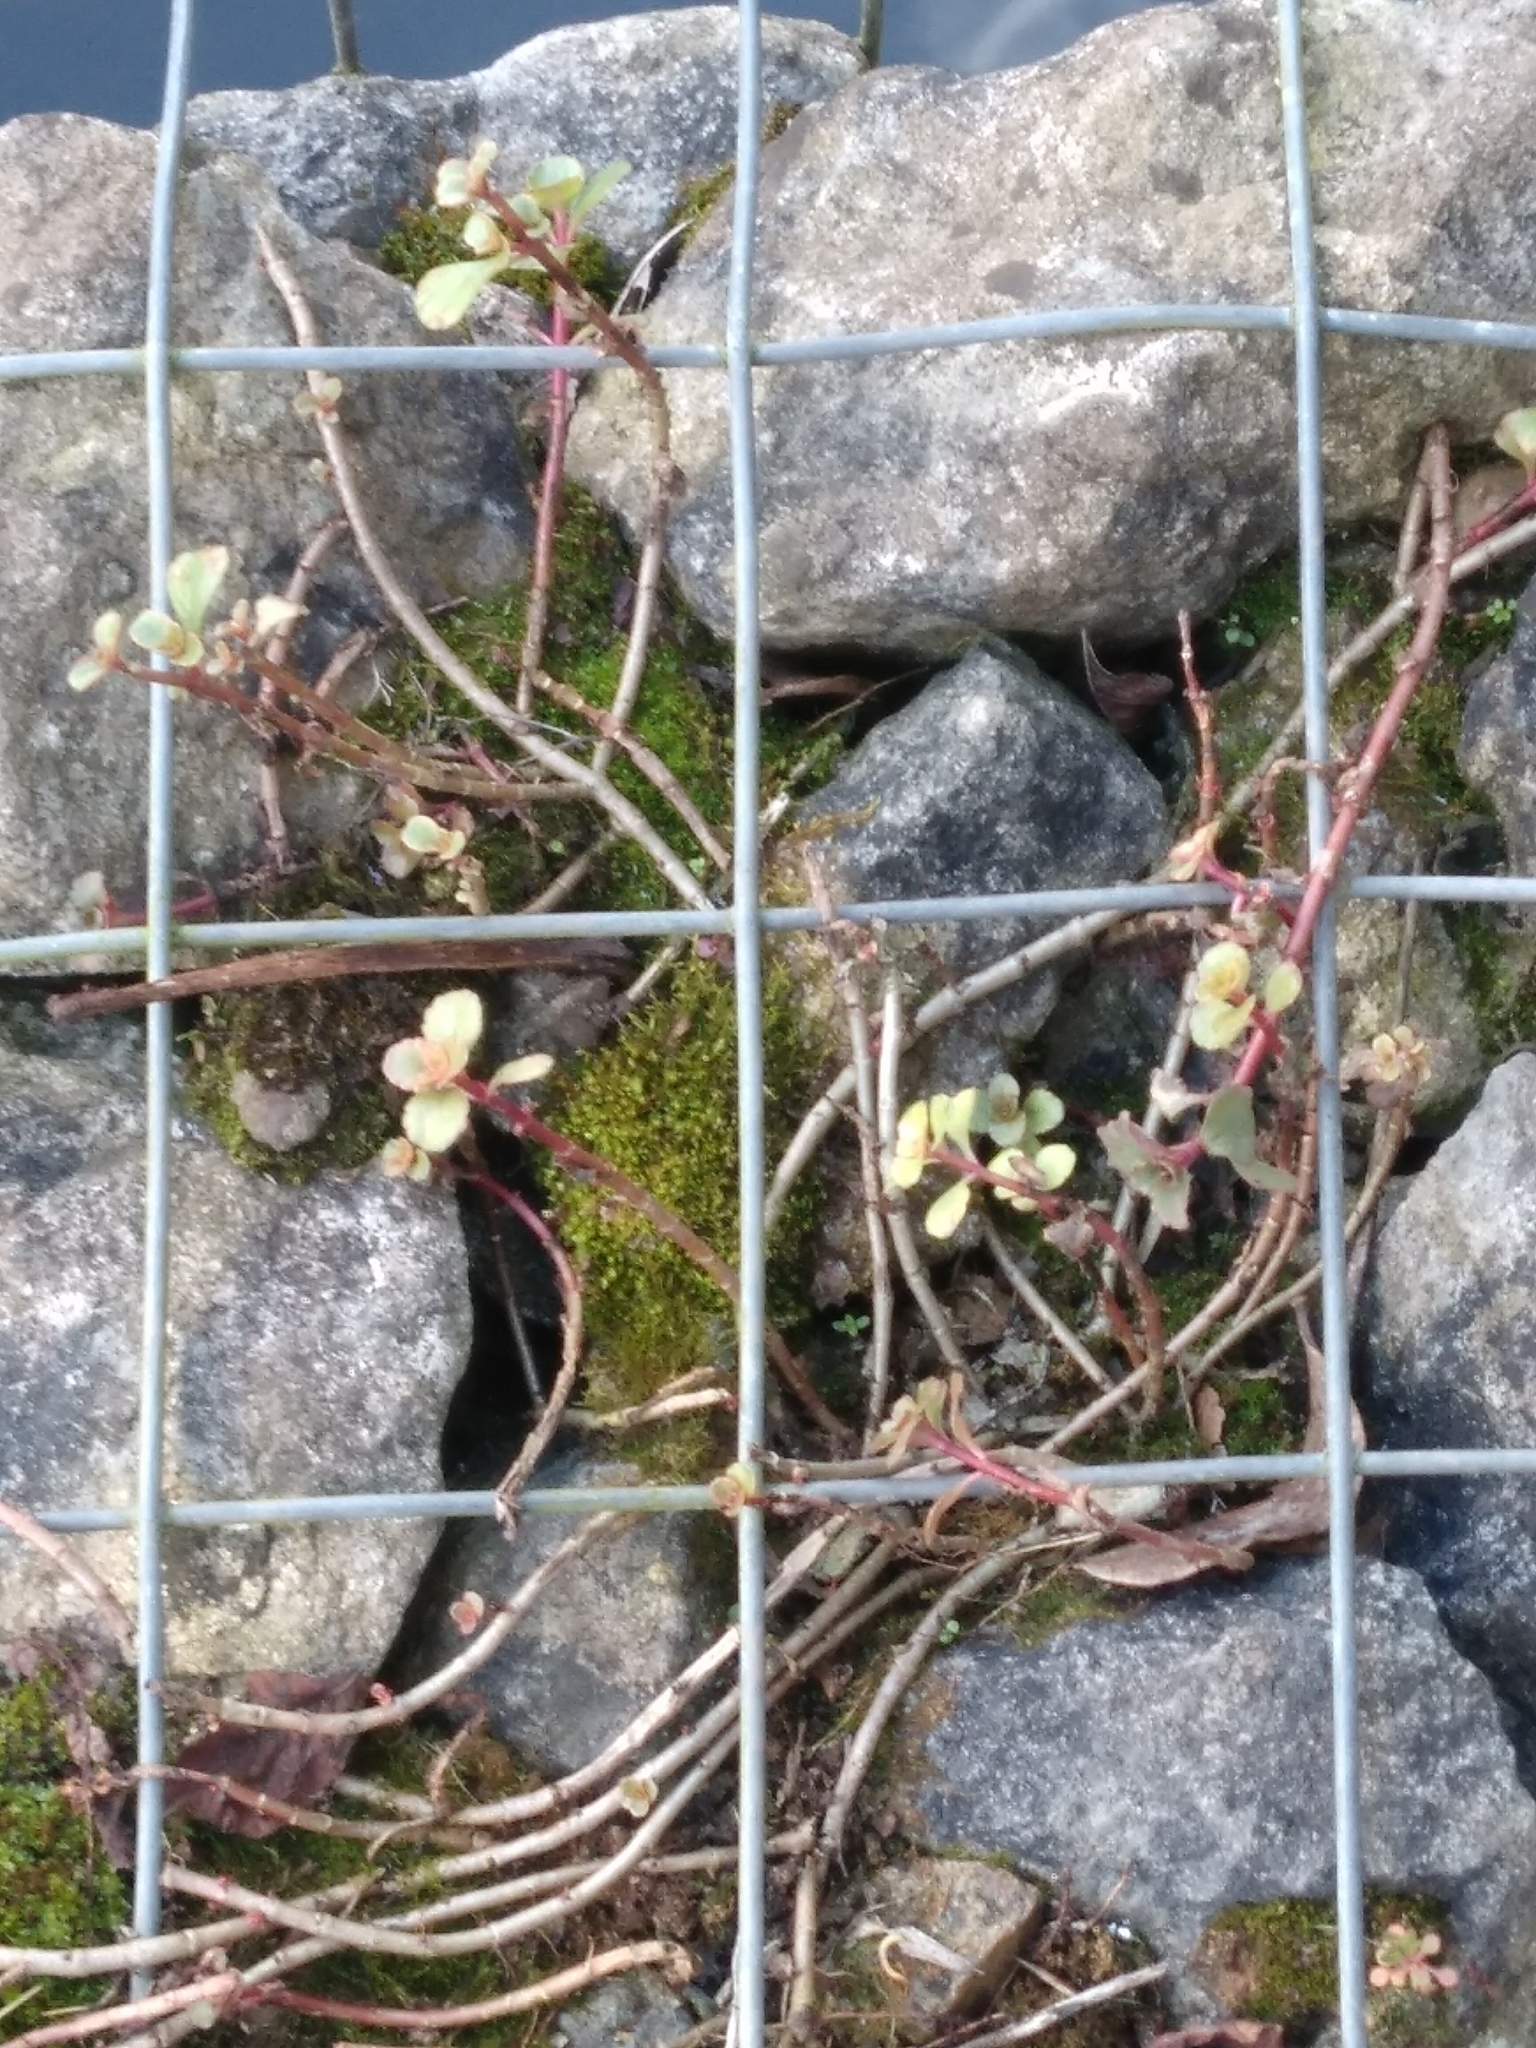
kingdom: Plantae
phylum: Tracheophyta
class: Magnoliopsida
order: Saxifragales
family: Crassulaceae
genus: Phedimus
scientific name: Phedimus spurius
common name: Caucasian stonecrop
